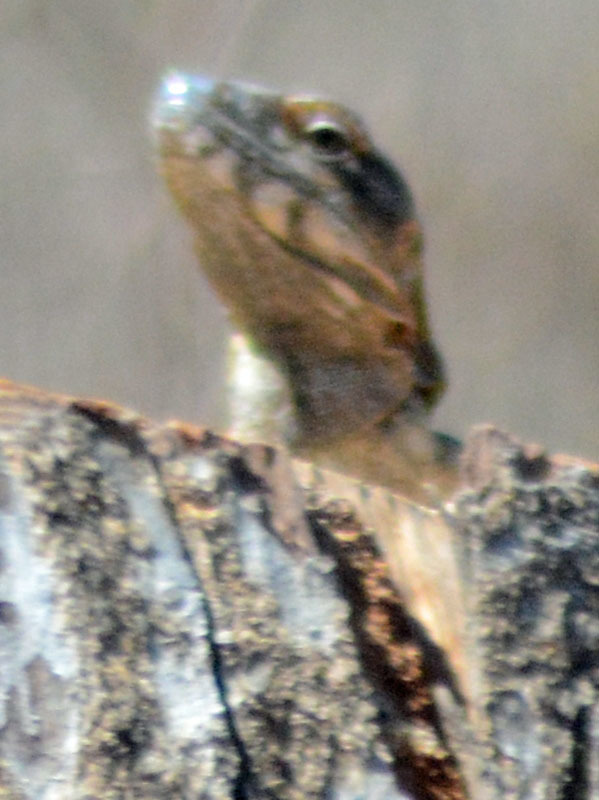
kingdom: Animalia
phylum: Chordata
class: Squamata
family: Iguanidae
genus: Ctenosaura
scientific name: Ctenosaura pectinata
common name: Guerreran spiny-tailed iguana
